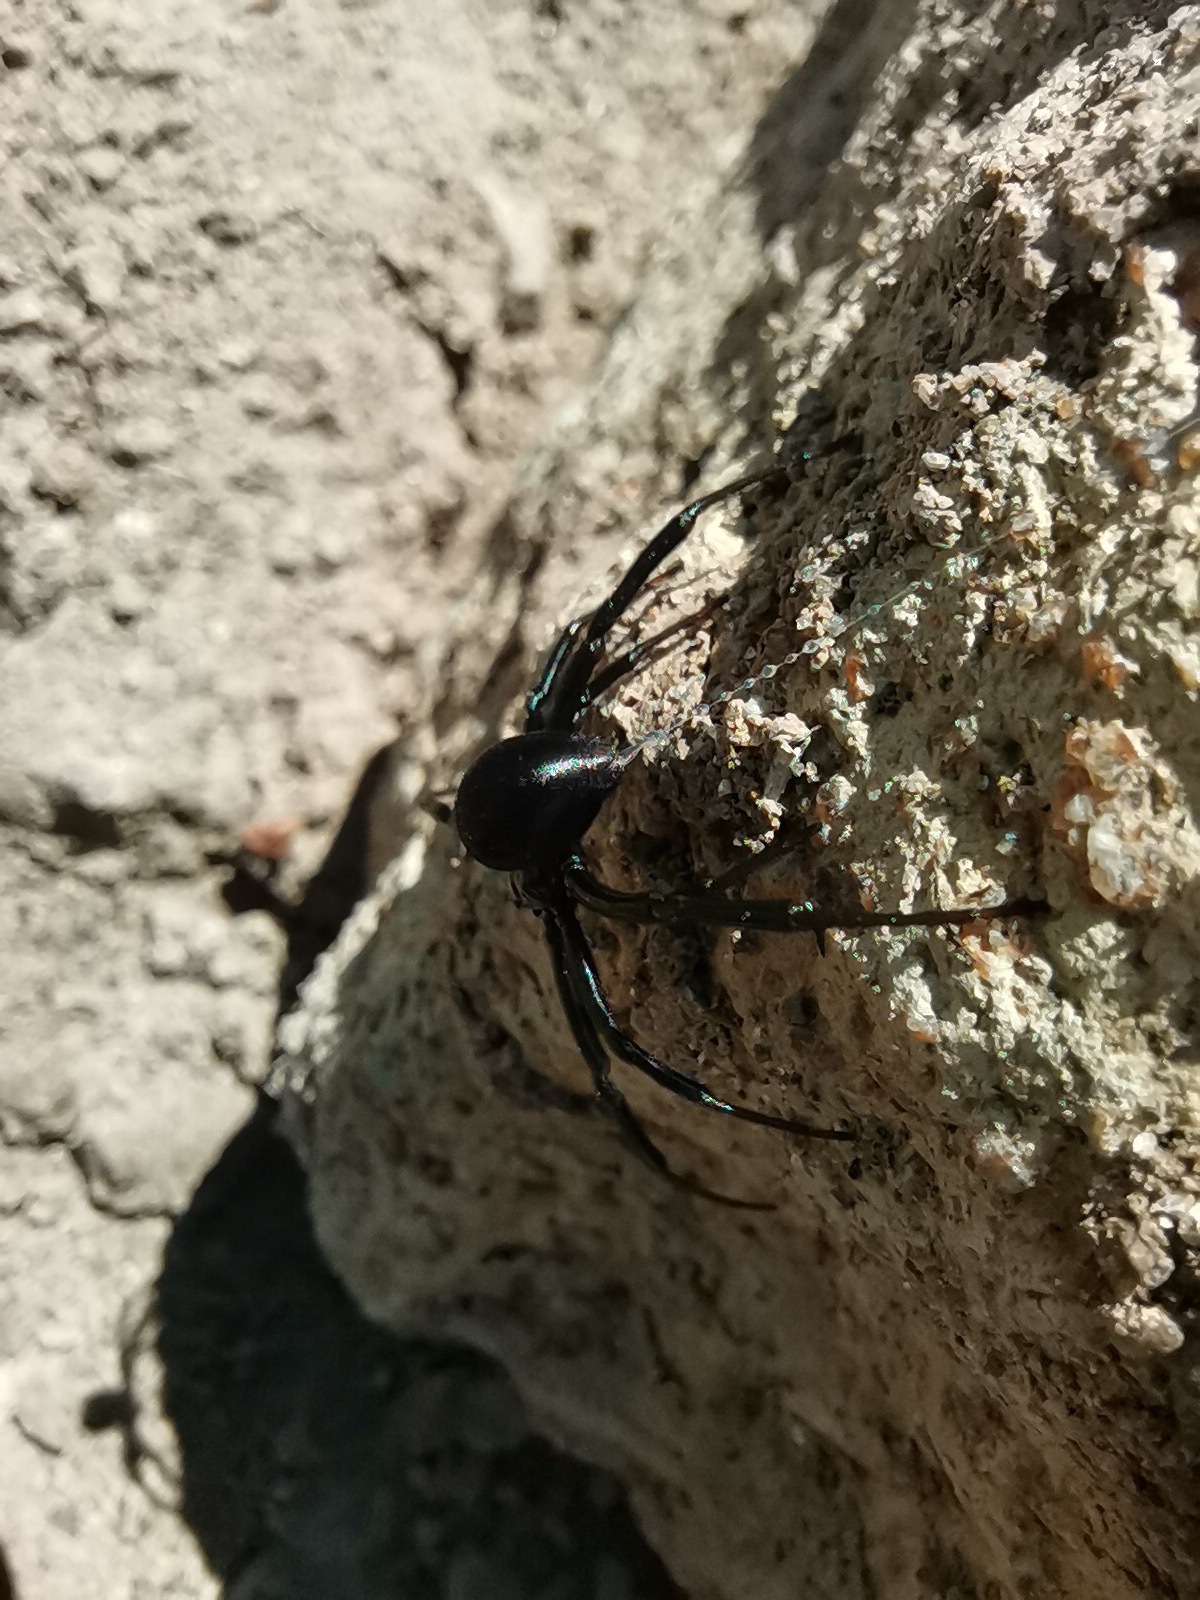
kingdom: Animalia
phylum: Arthropoda
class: Arachnida
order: Araneae
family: Theridiidae
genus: Latrodectus
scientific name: Latrodectus mactans
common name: Cobweb spiders
